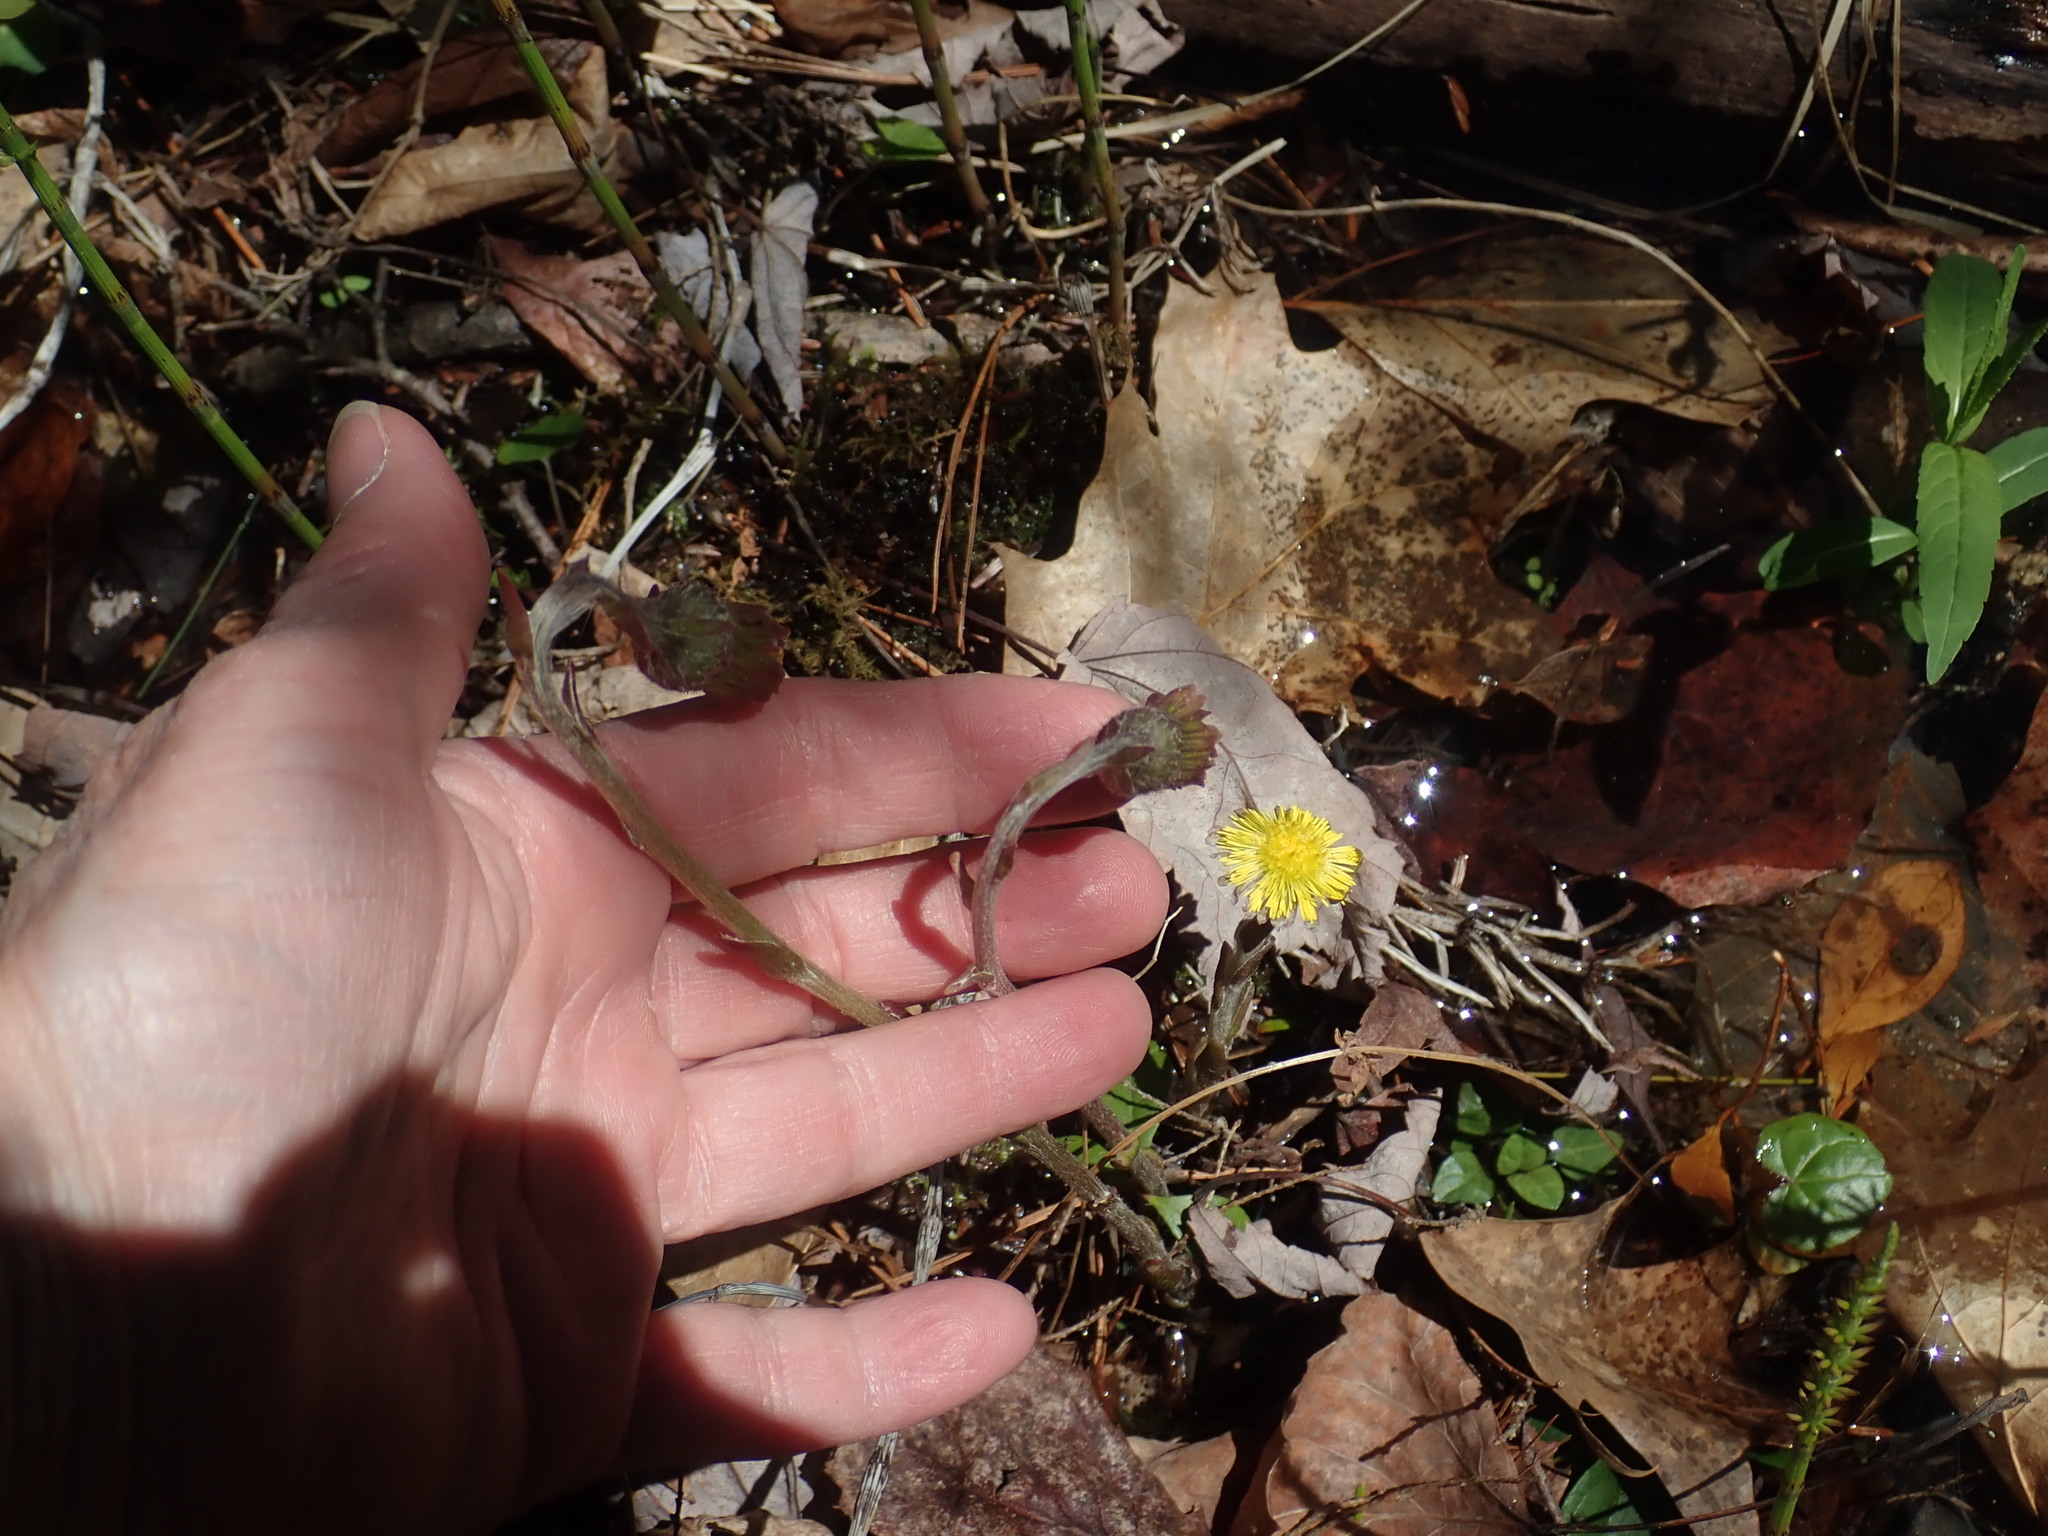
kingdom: Plantae
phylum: Tracheophyta
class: Magnoliopsida
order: Asterales
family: Asteraceae
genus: Tussilago
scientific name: Tussilago farfara
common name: Coltsfoot
